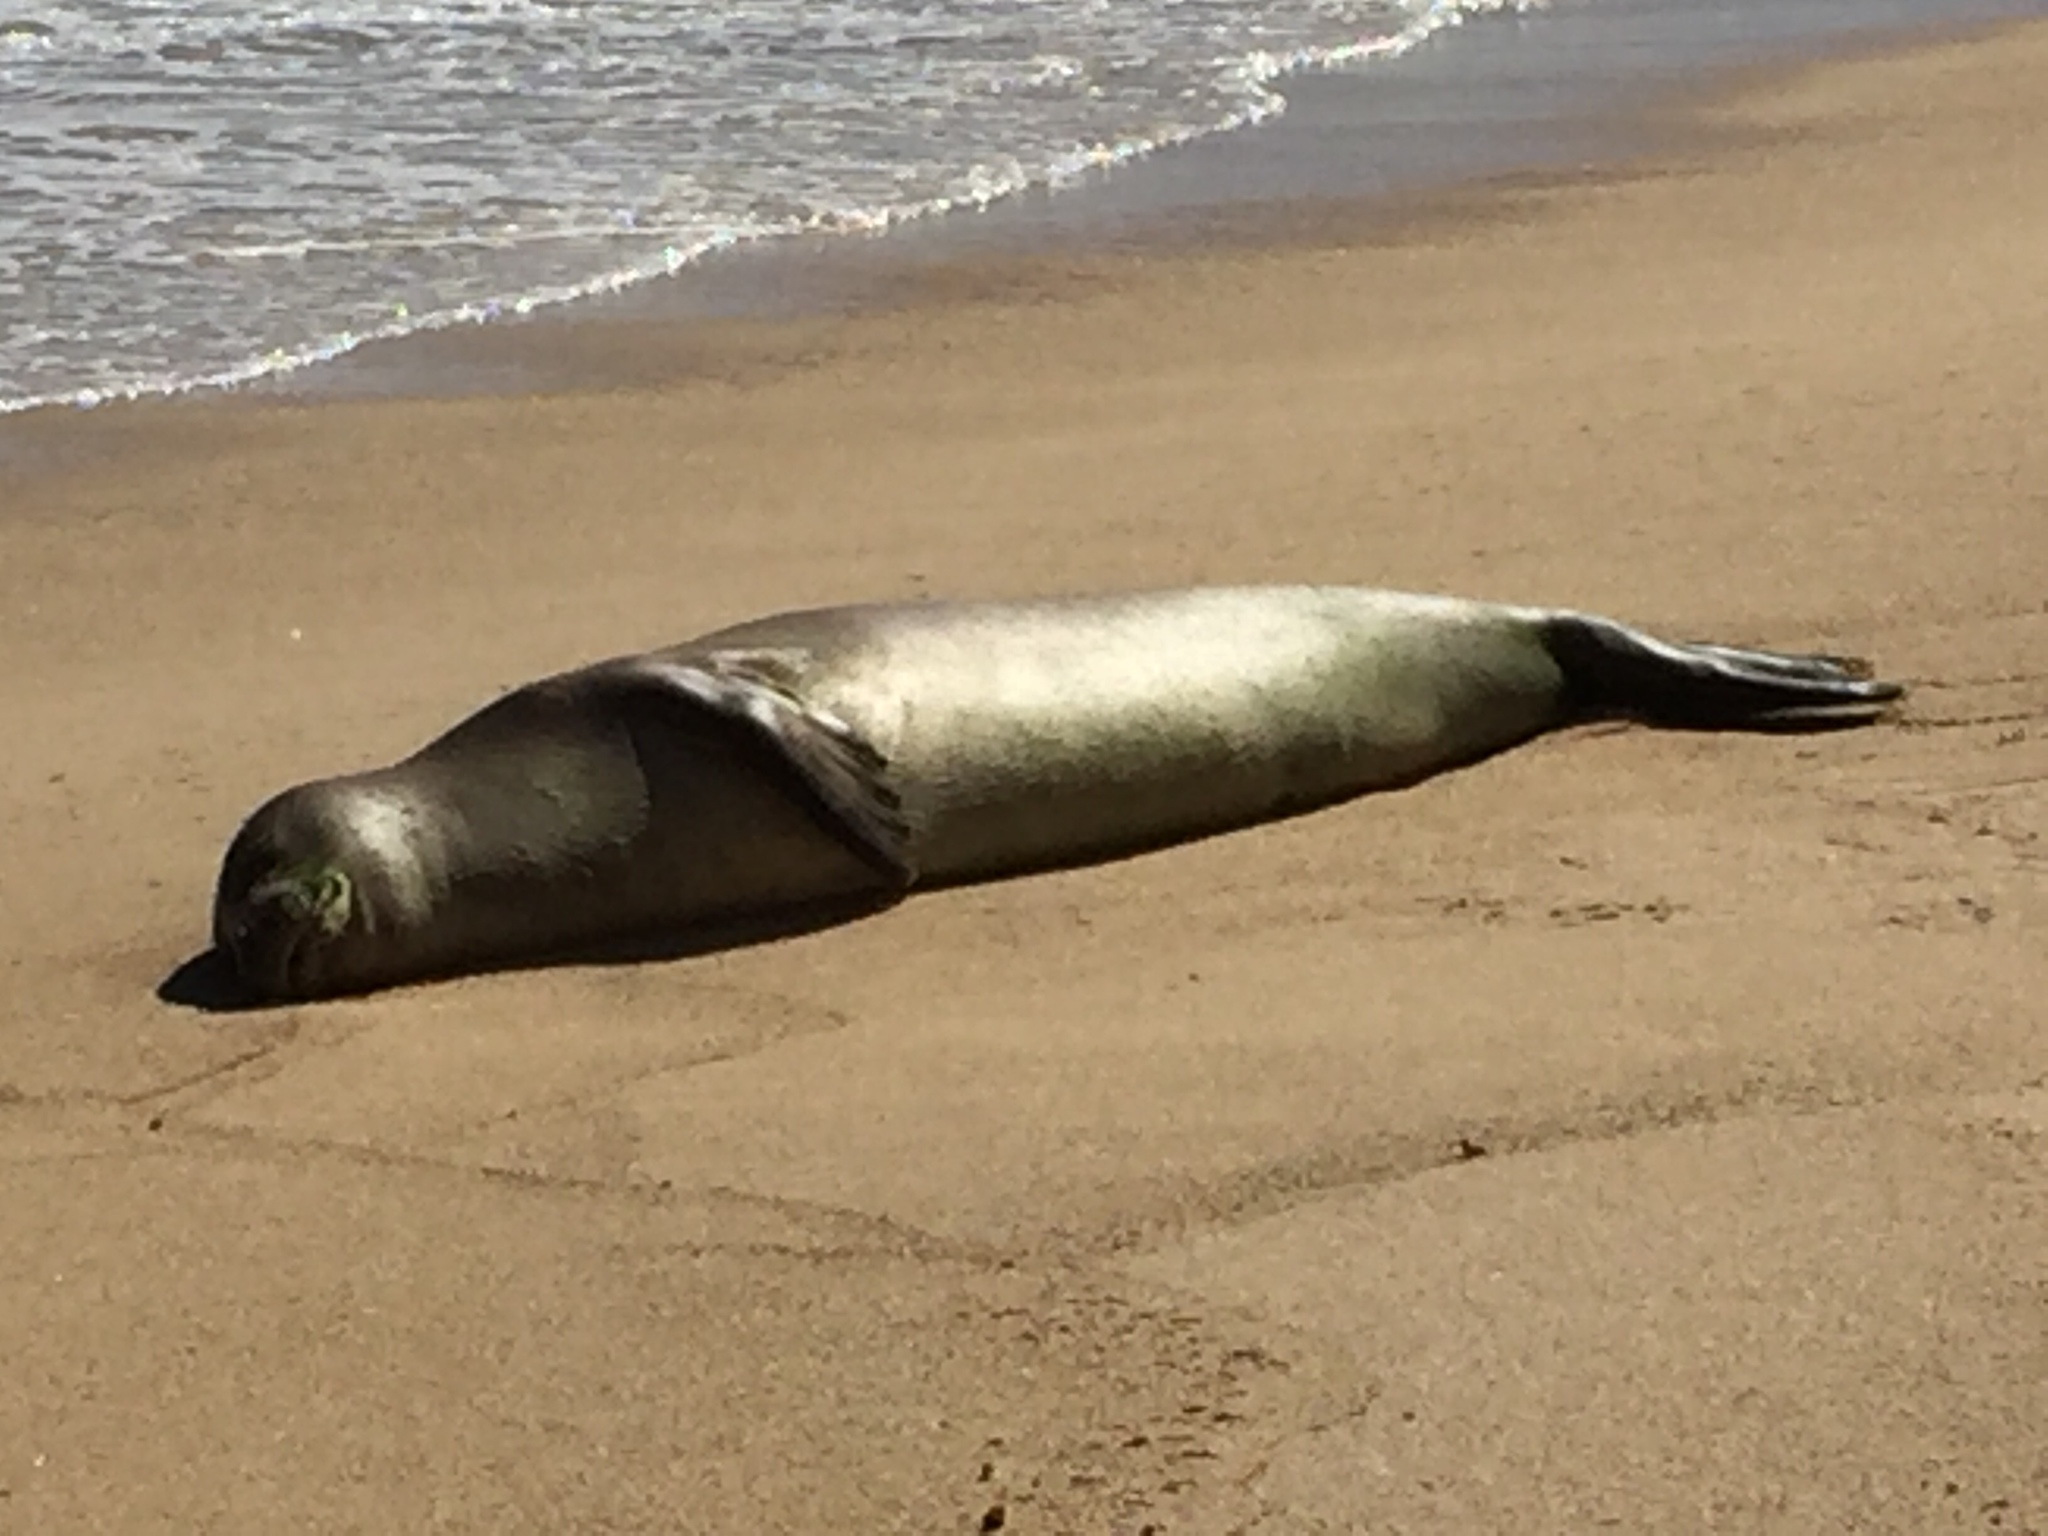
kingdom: Animalia
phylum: Chordata
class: Mammalia
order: Carnivora
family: Phocidae
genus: Neomonachus
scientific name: Neomonachus schauinslandi
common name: Hawaiian monk seal
